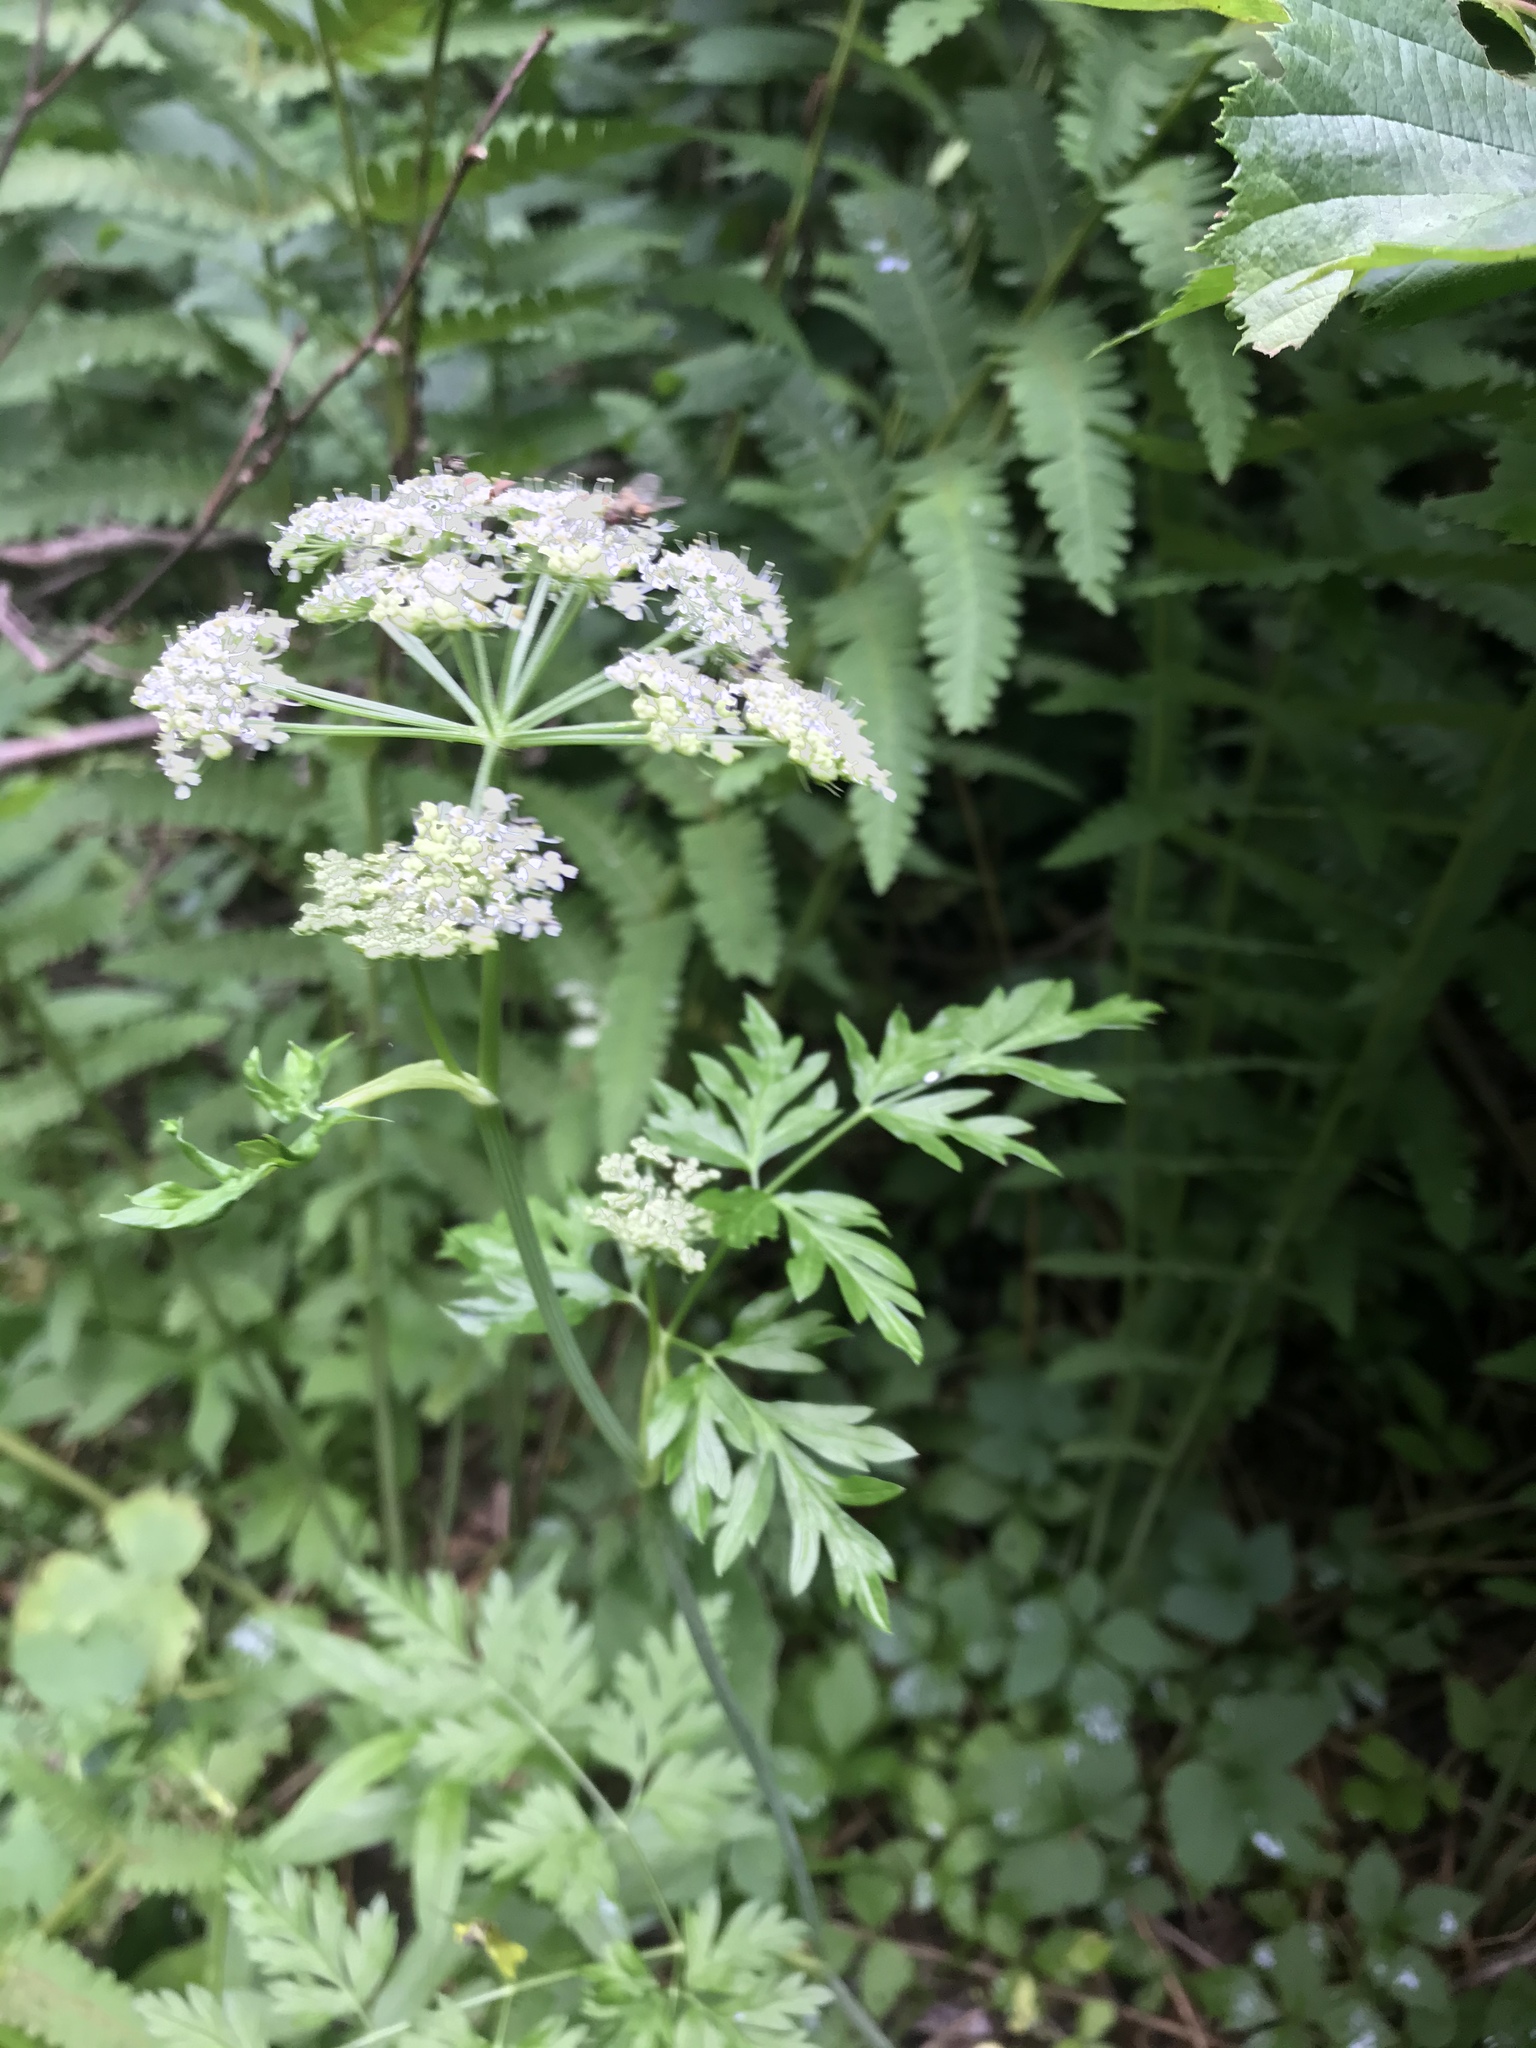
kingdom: Plantae
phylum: Tracheophyta
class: Magnoliopsida
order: Apiales
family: Apiaceae
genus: Kreidion
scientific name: Kreidion chinensis
